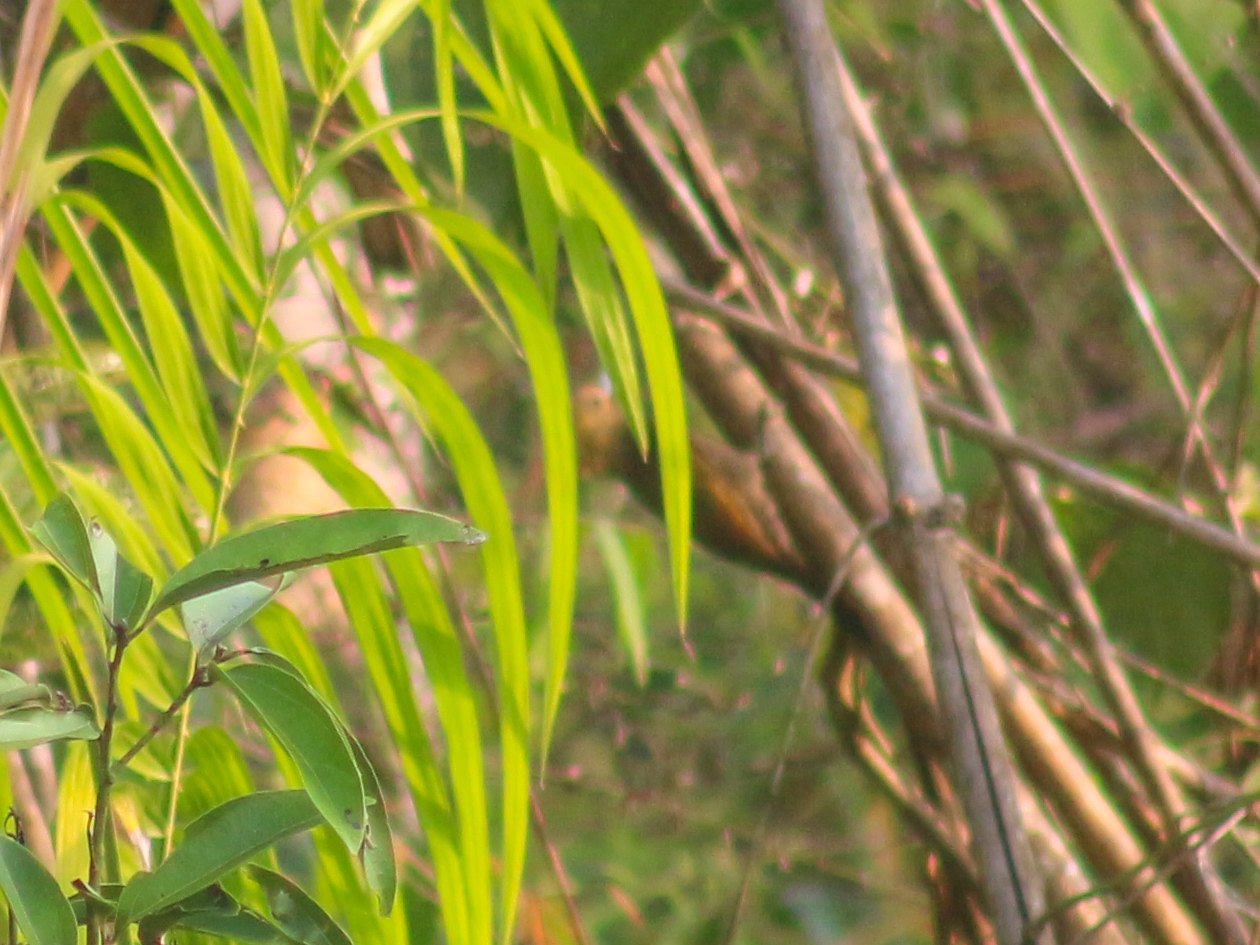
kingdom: Animalia
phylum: Chordata
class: Aves
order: Piciformes
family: Picidae
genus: Micropternus
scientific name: Micropternus brachyurus
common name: Rufous woodpecker
